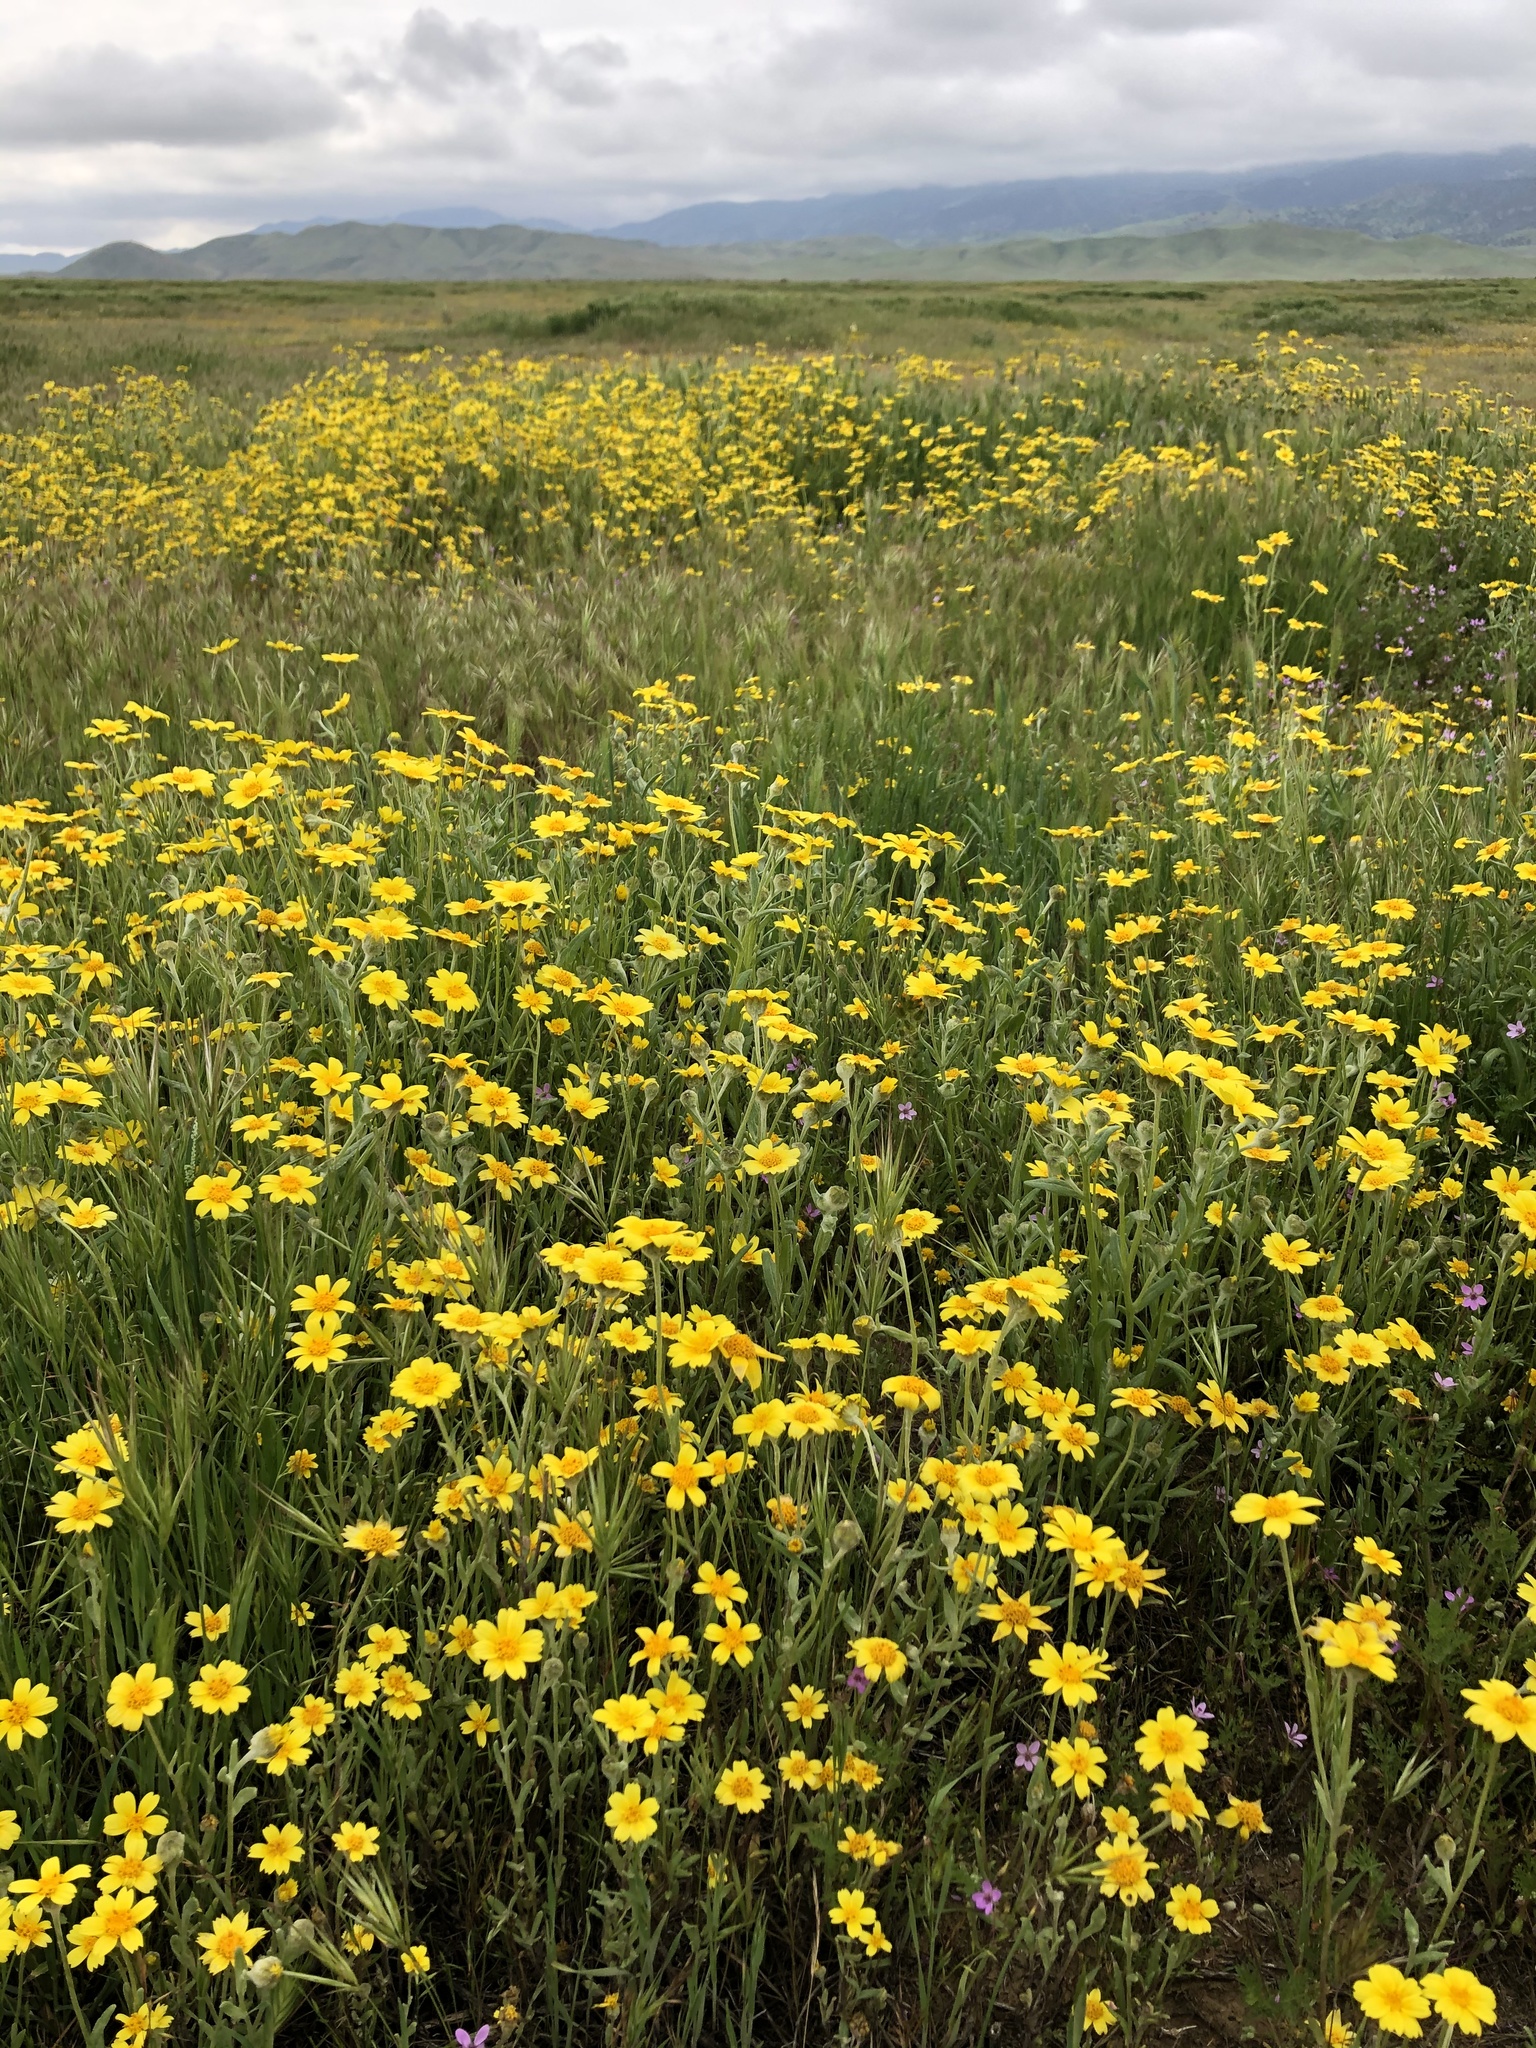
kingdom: Plantae
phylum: Tracheophyta
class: Magnoliopsida
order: Asterales
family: Asteraceae
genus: Monolopia
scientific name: Monolopia lanceolata
